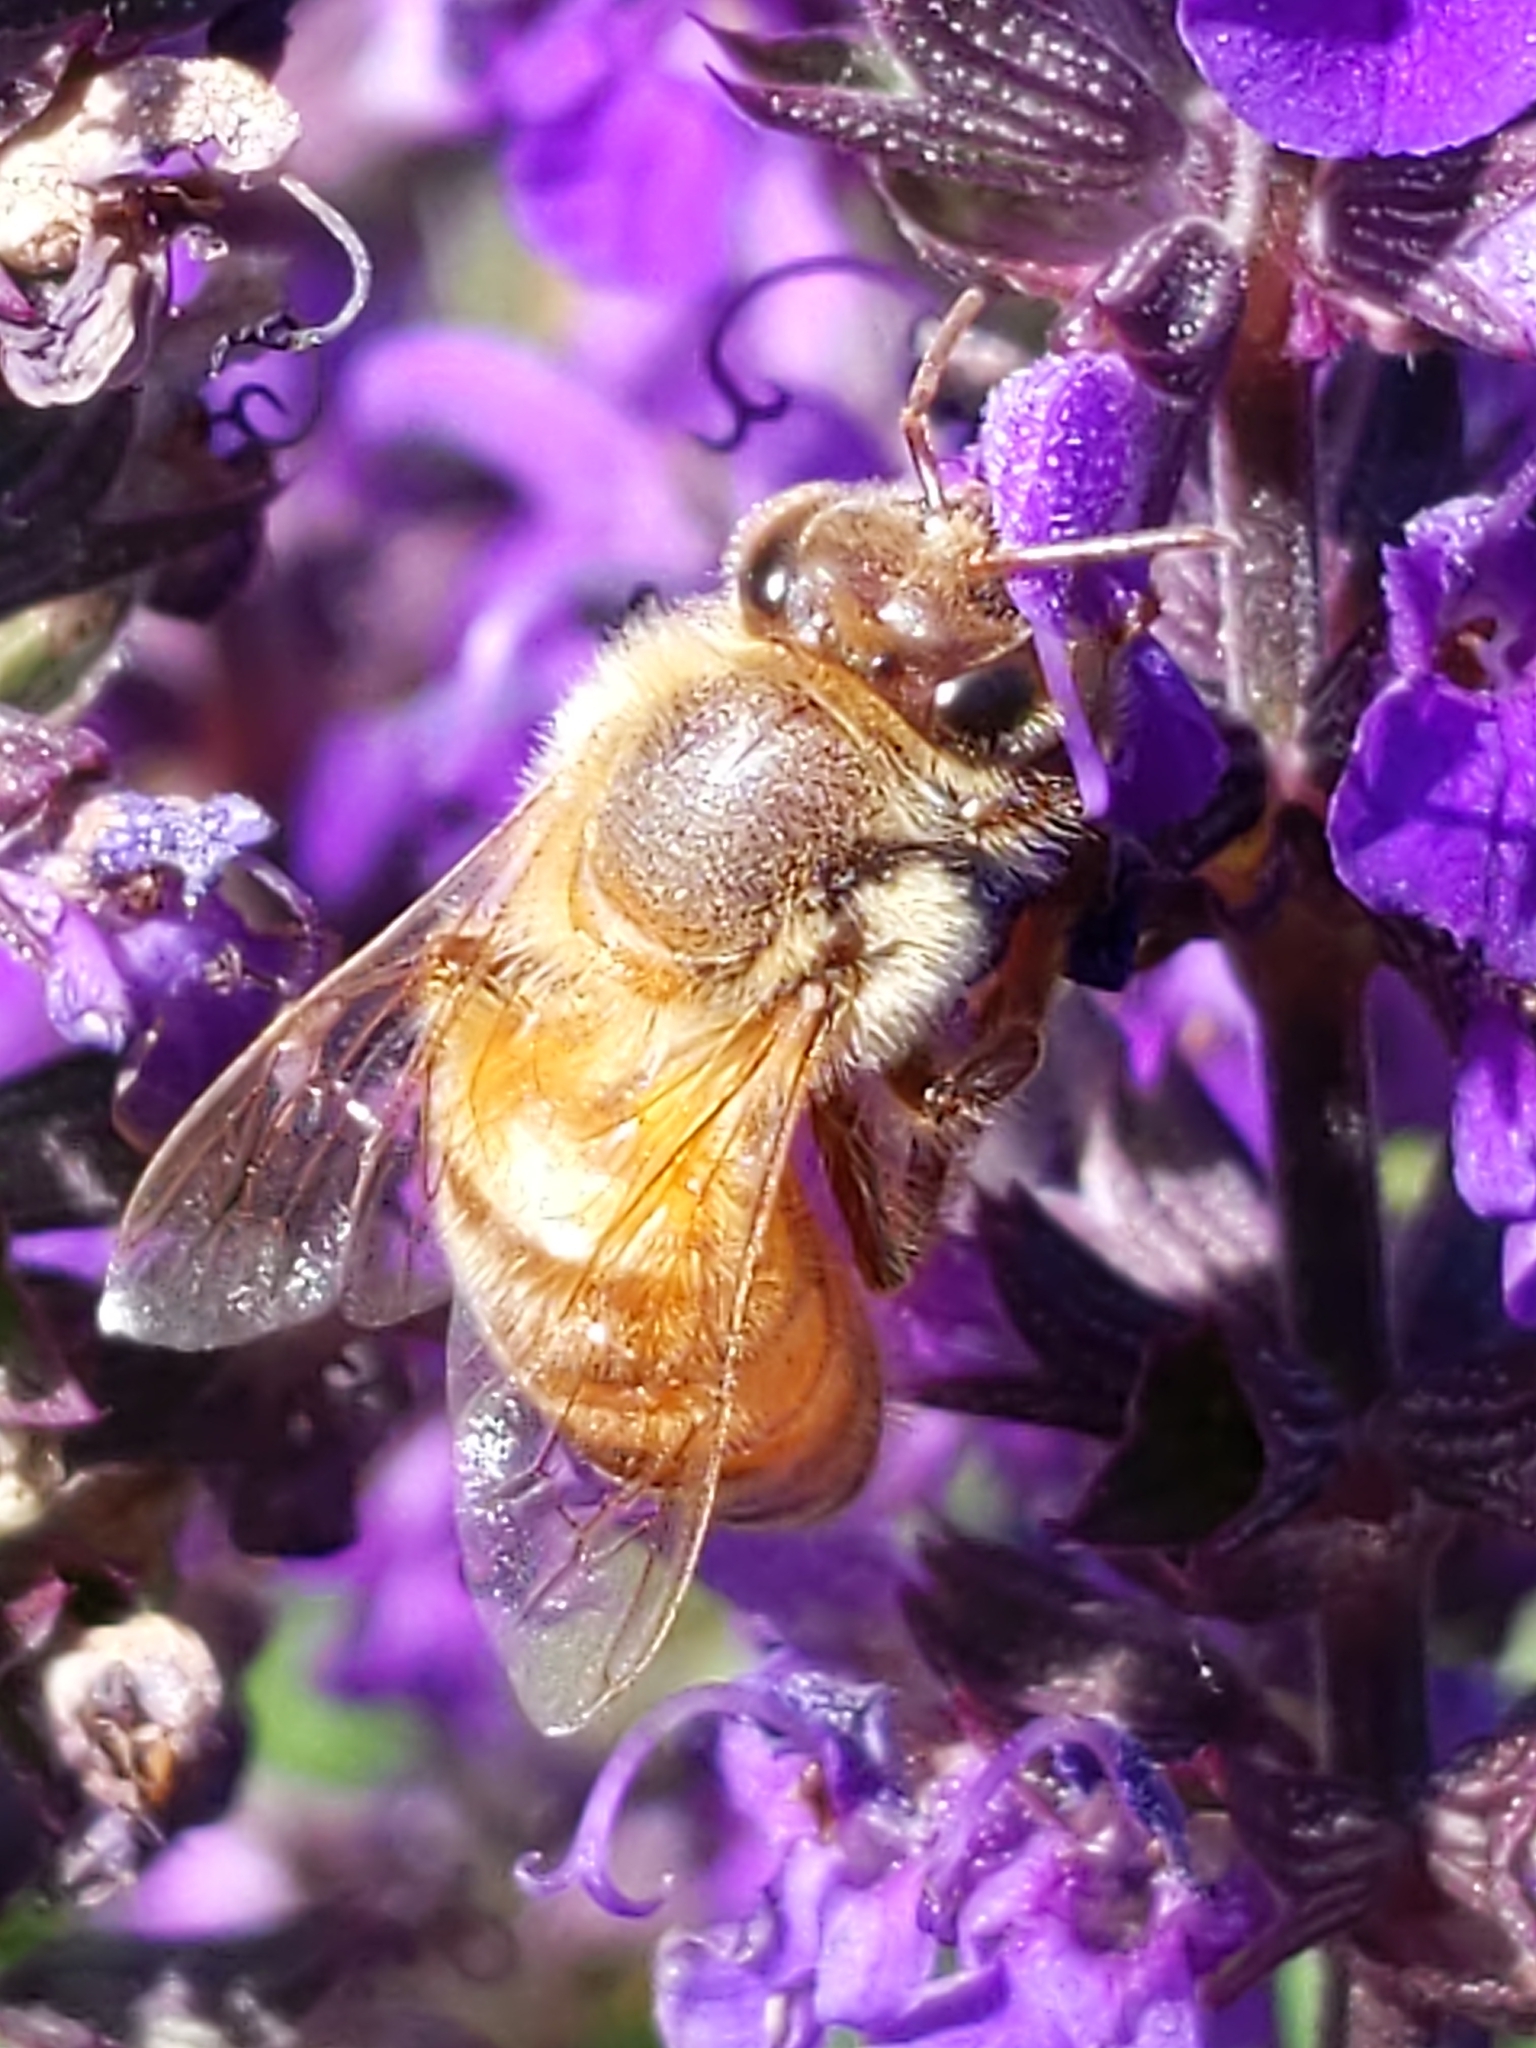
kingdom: Animalia
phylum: Arthropoda
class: Insecta
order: Hymenoptera
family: Apidae
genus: Apis
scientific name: Apis mellifera
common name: Honey bee
